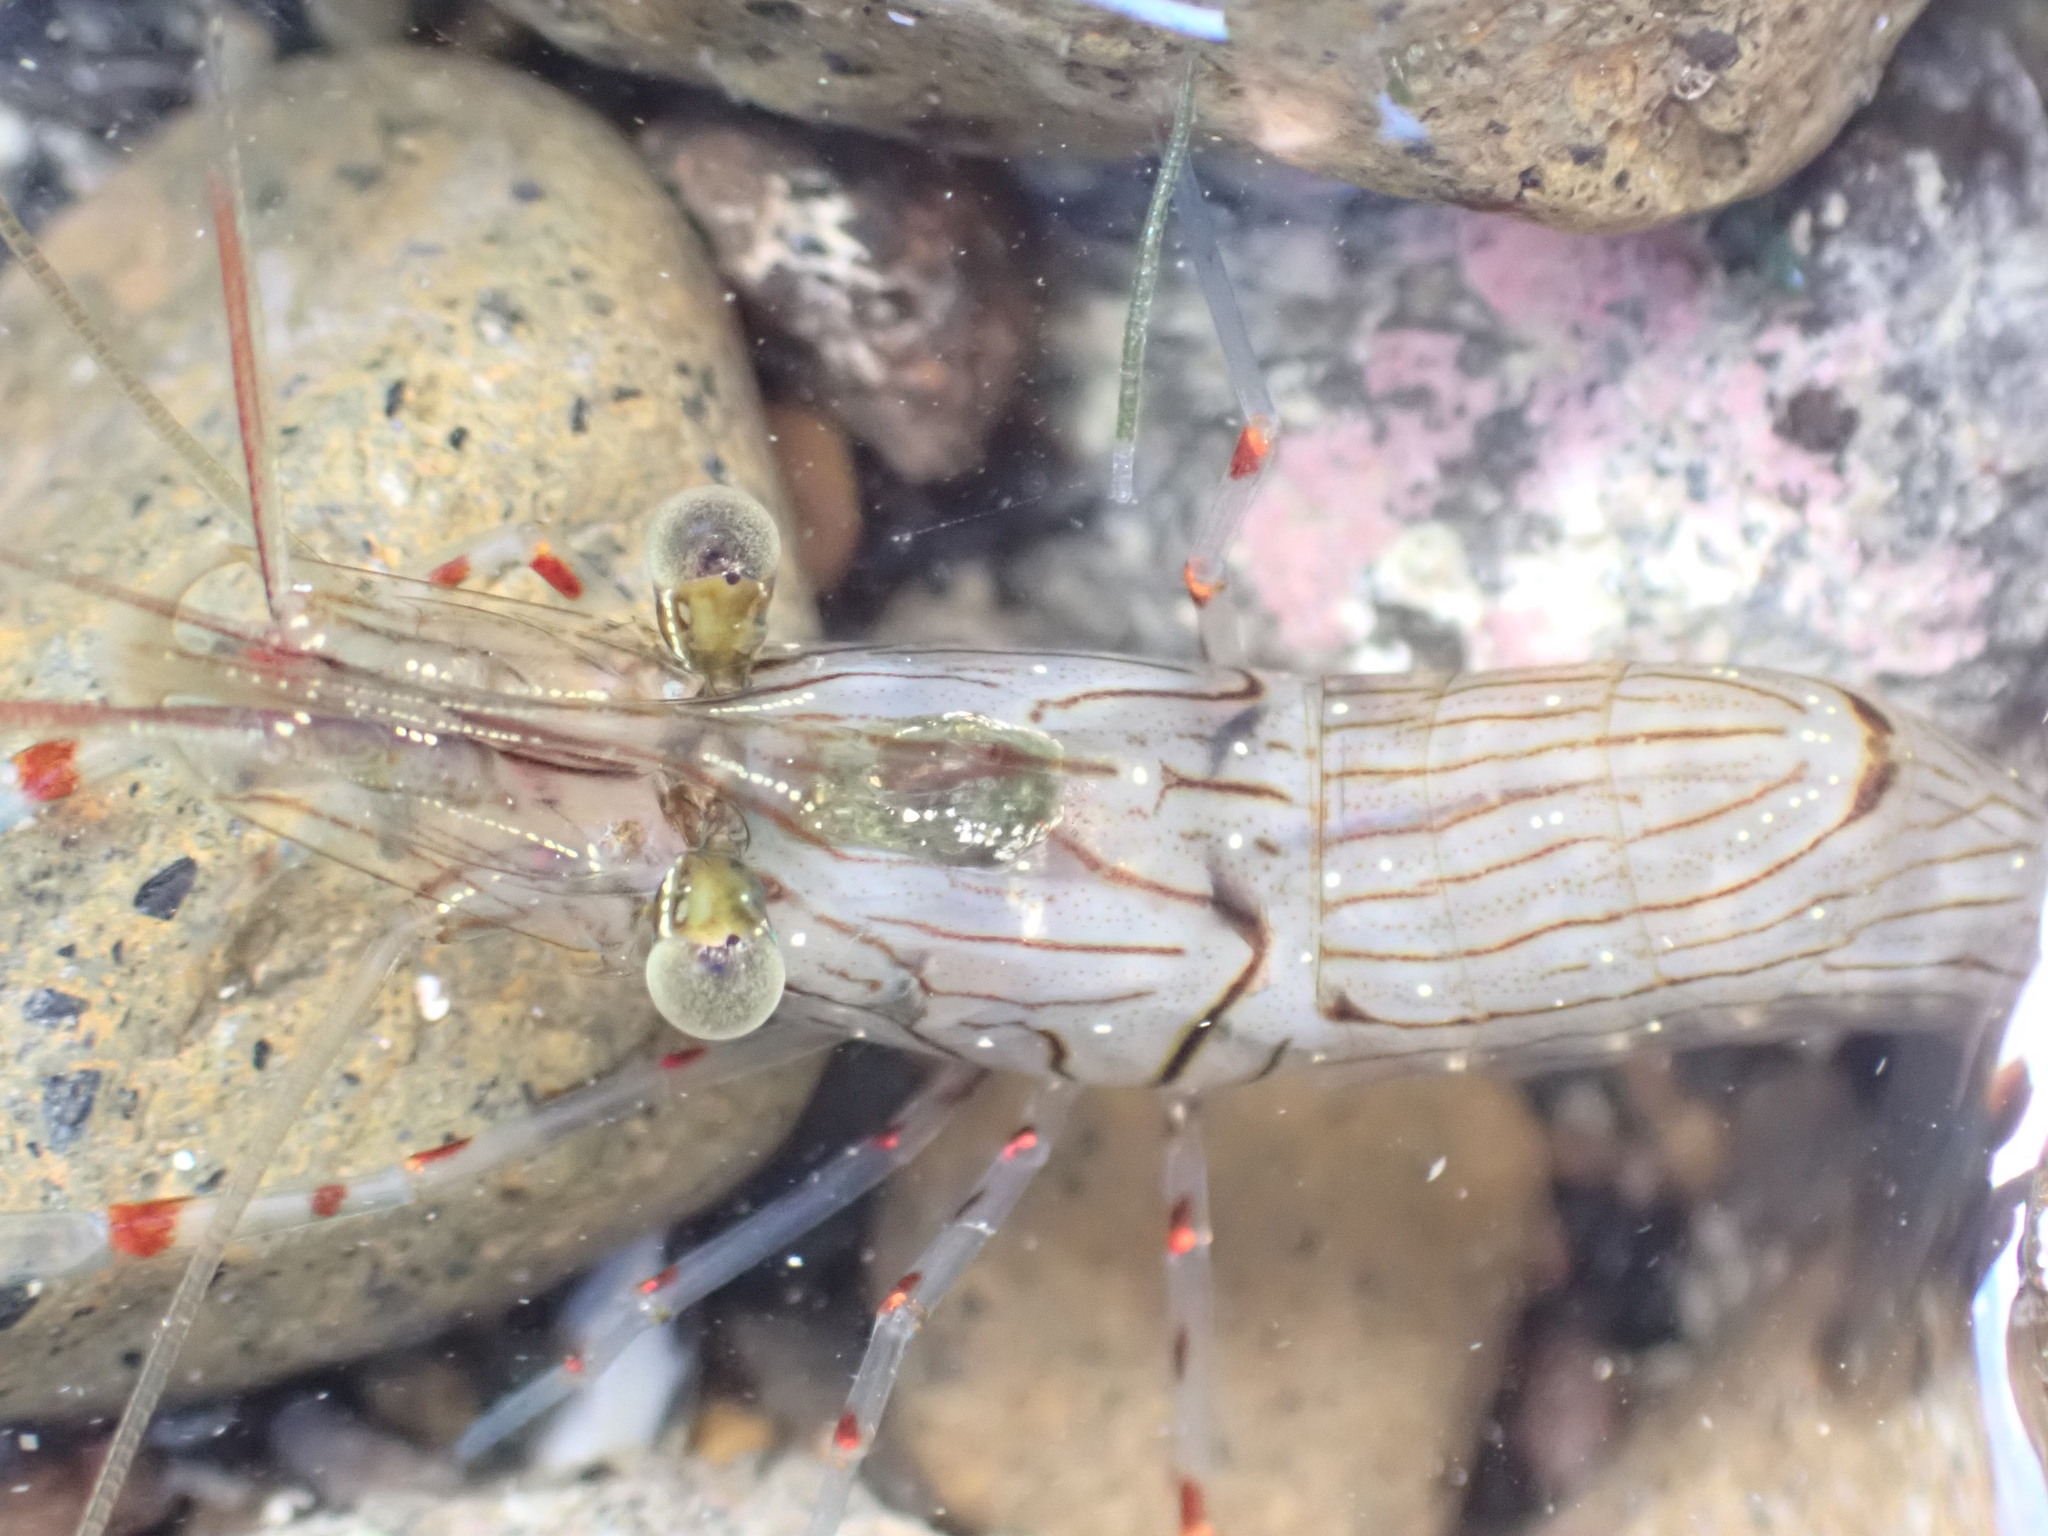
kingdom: Animalia
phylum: Arthropoda
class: Malacostraca
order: Decapoda
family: Palaemonidae
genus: Palaemon
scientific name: Palaemon affinis
